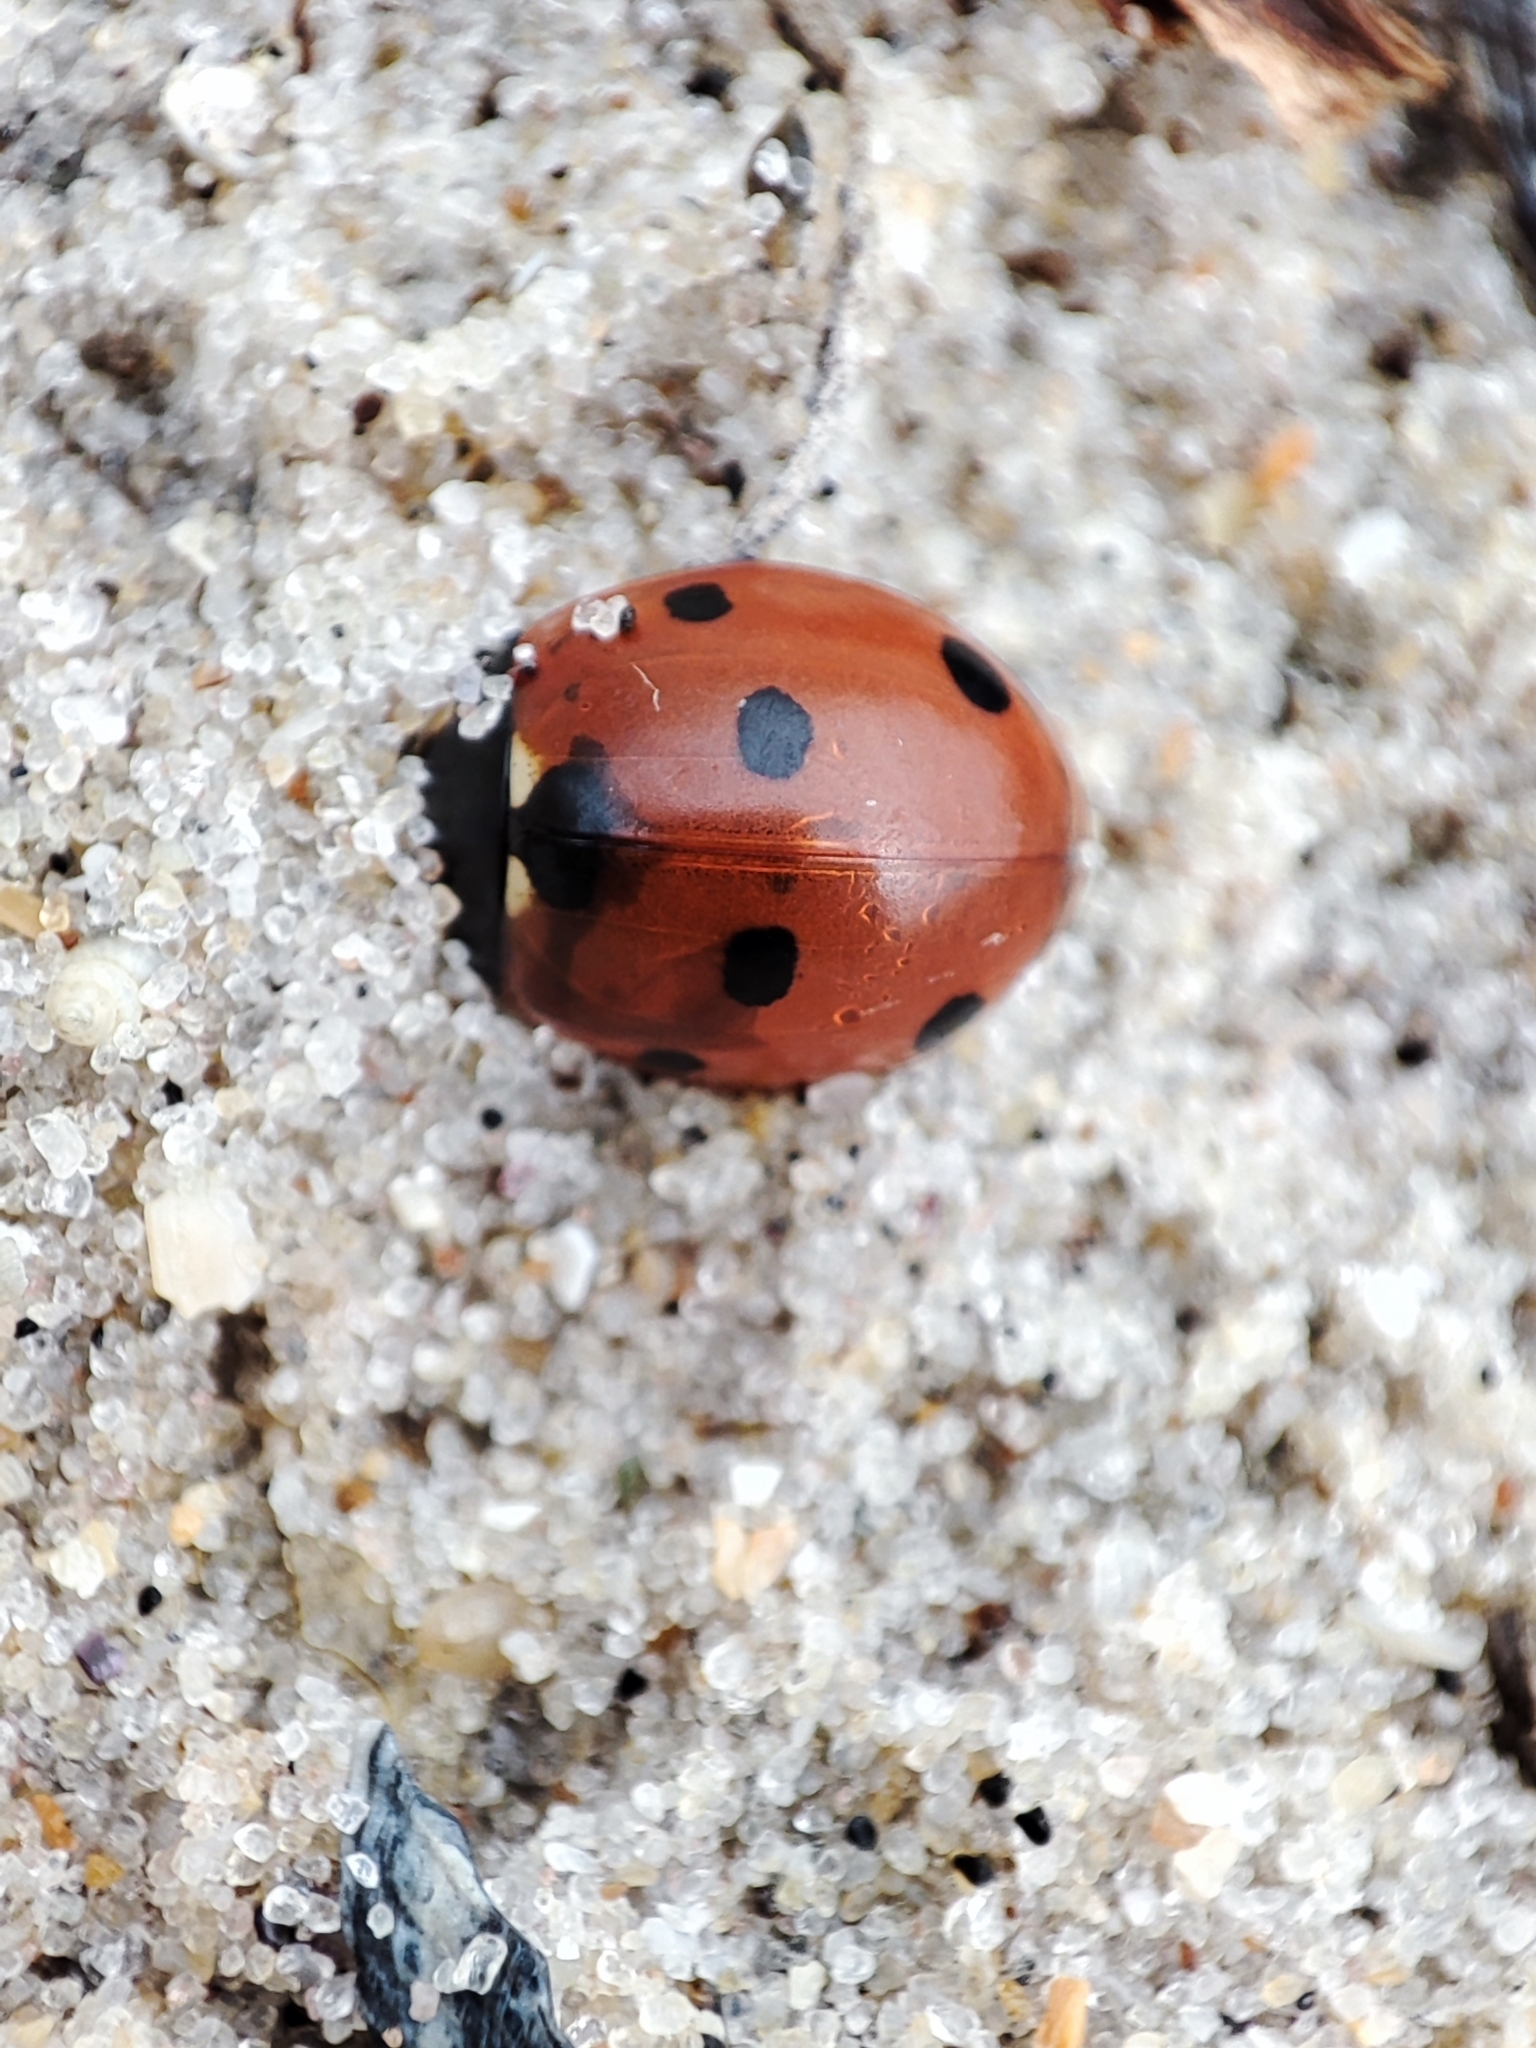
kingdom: Animalia
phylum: Arthropoda
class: Insecta
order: Coleoptera
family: Coccinellidae
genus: Coccinella
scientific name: Coccinella septempunctata
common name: Sevenspotted lady beetle
